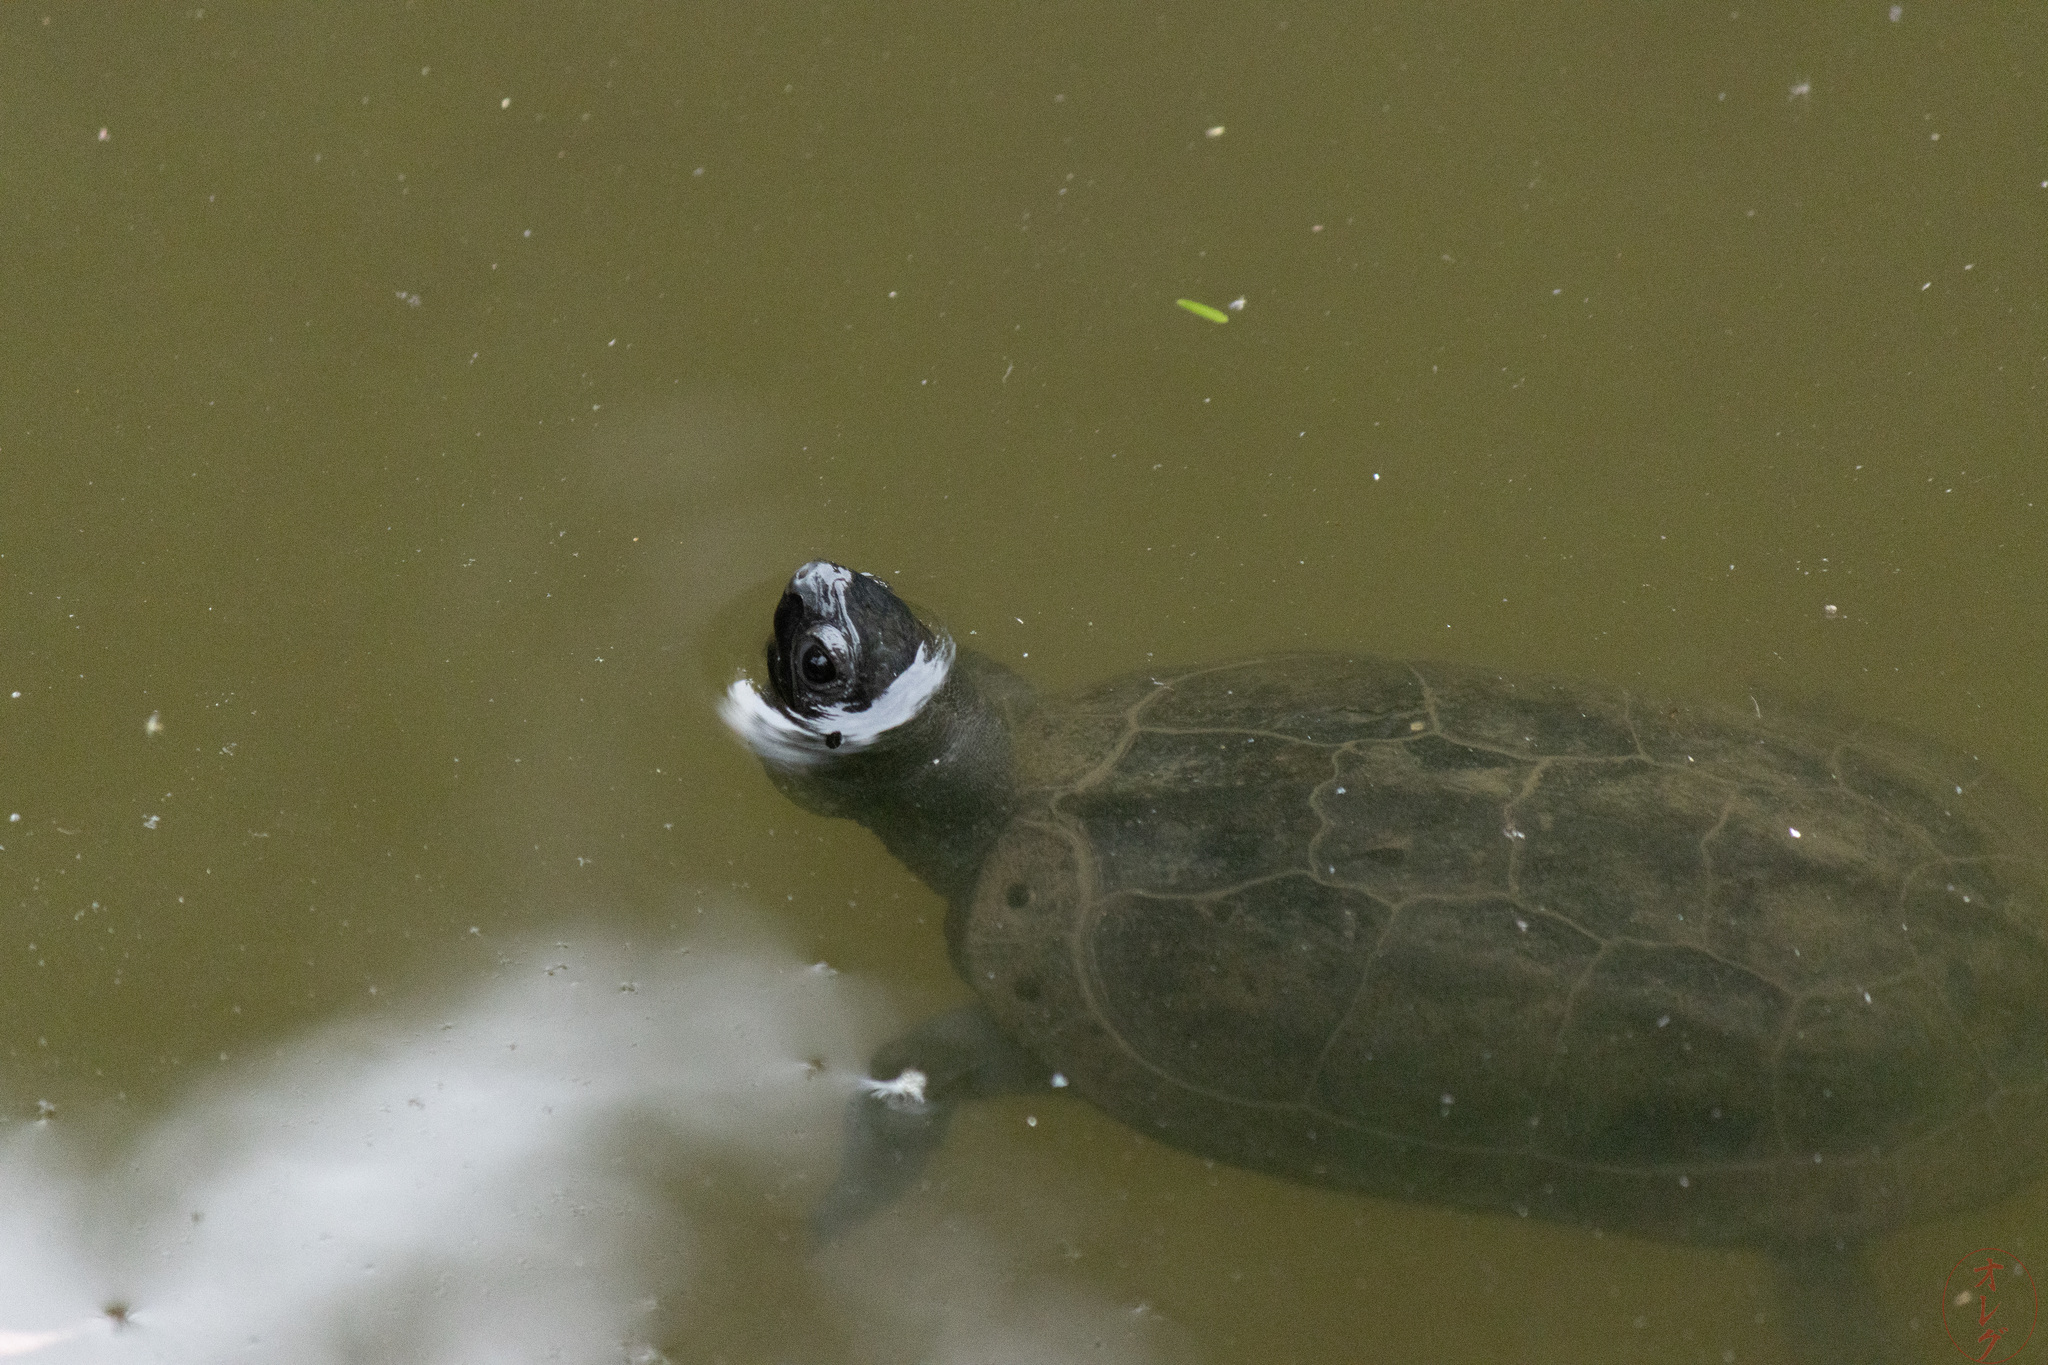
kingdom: Animalia
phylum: Chordata
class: Testudines
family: Geoemydidae
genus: Mauremys
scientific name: Mauremys reevesii
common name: Chinese pond turtle
